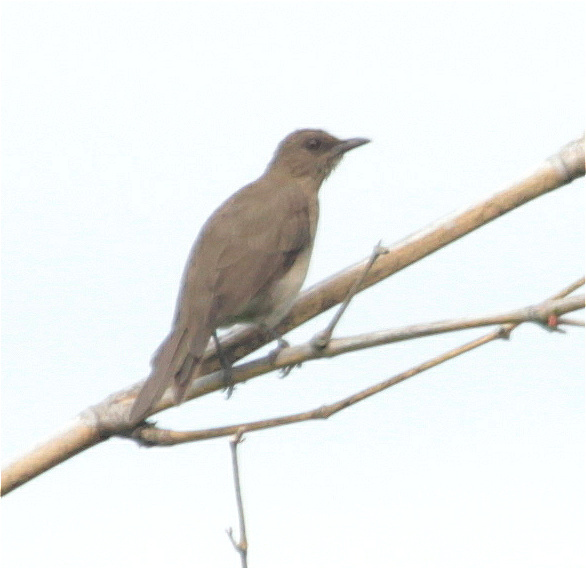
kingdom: Animalia
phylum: Chordata
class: Aves
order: Passeriformes
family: Turdidae
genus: Turdus
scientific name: Turdus ignobilis
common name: Black-billed thrush
